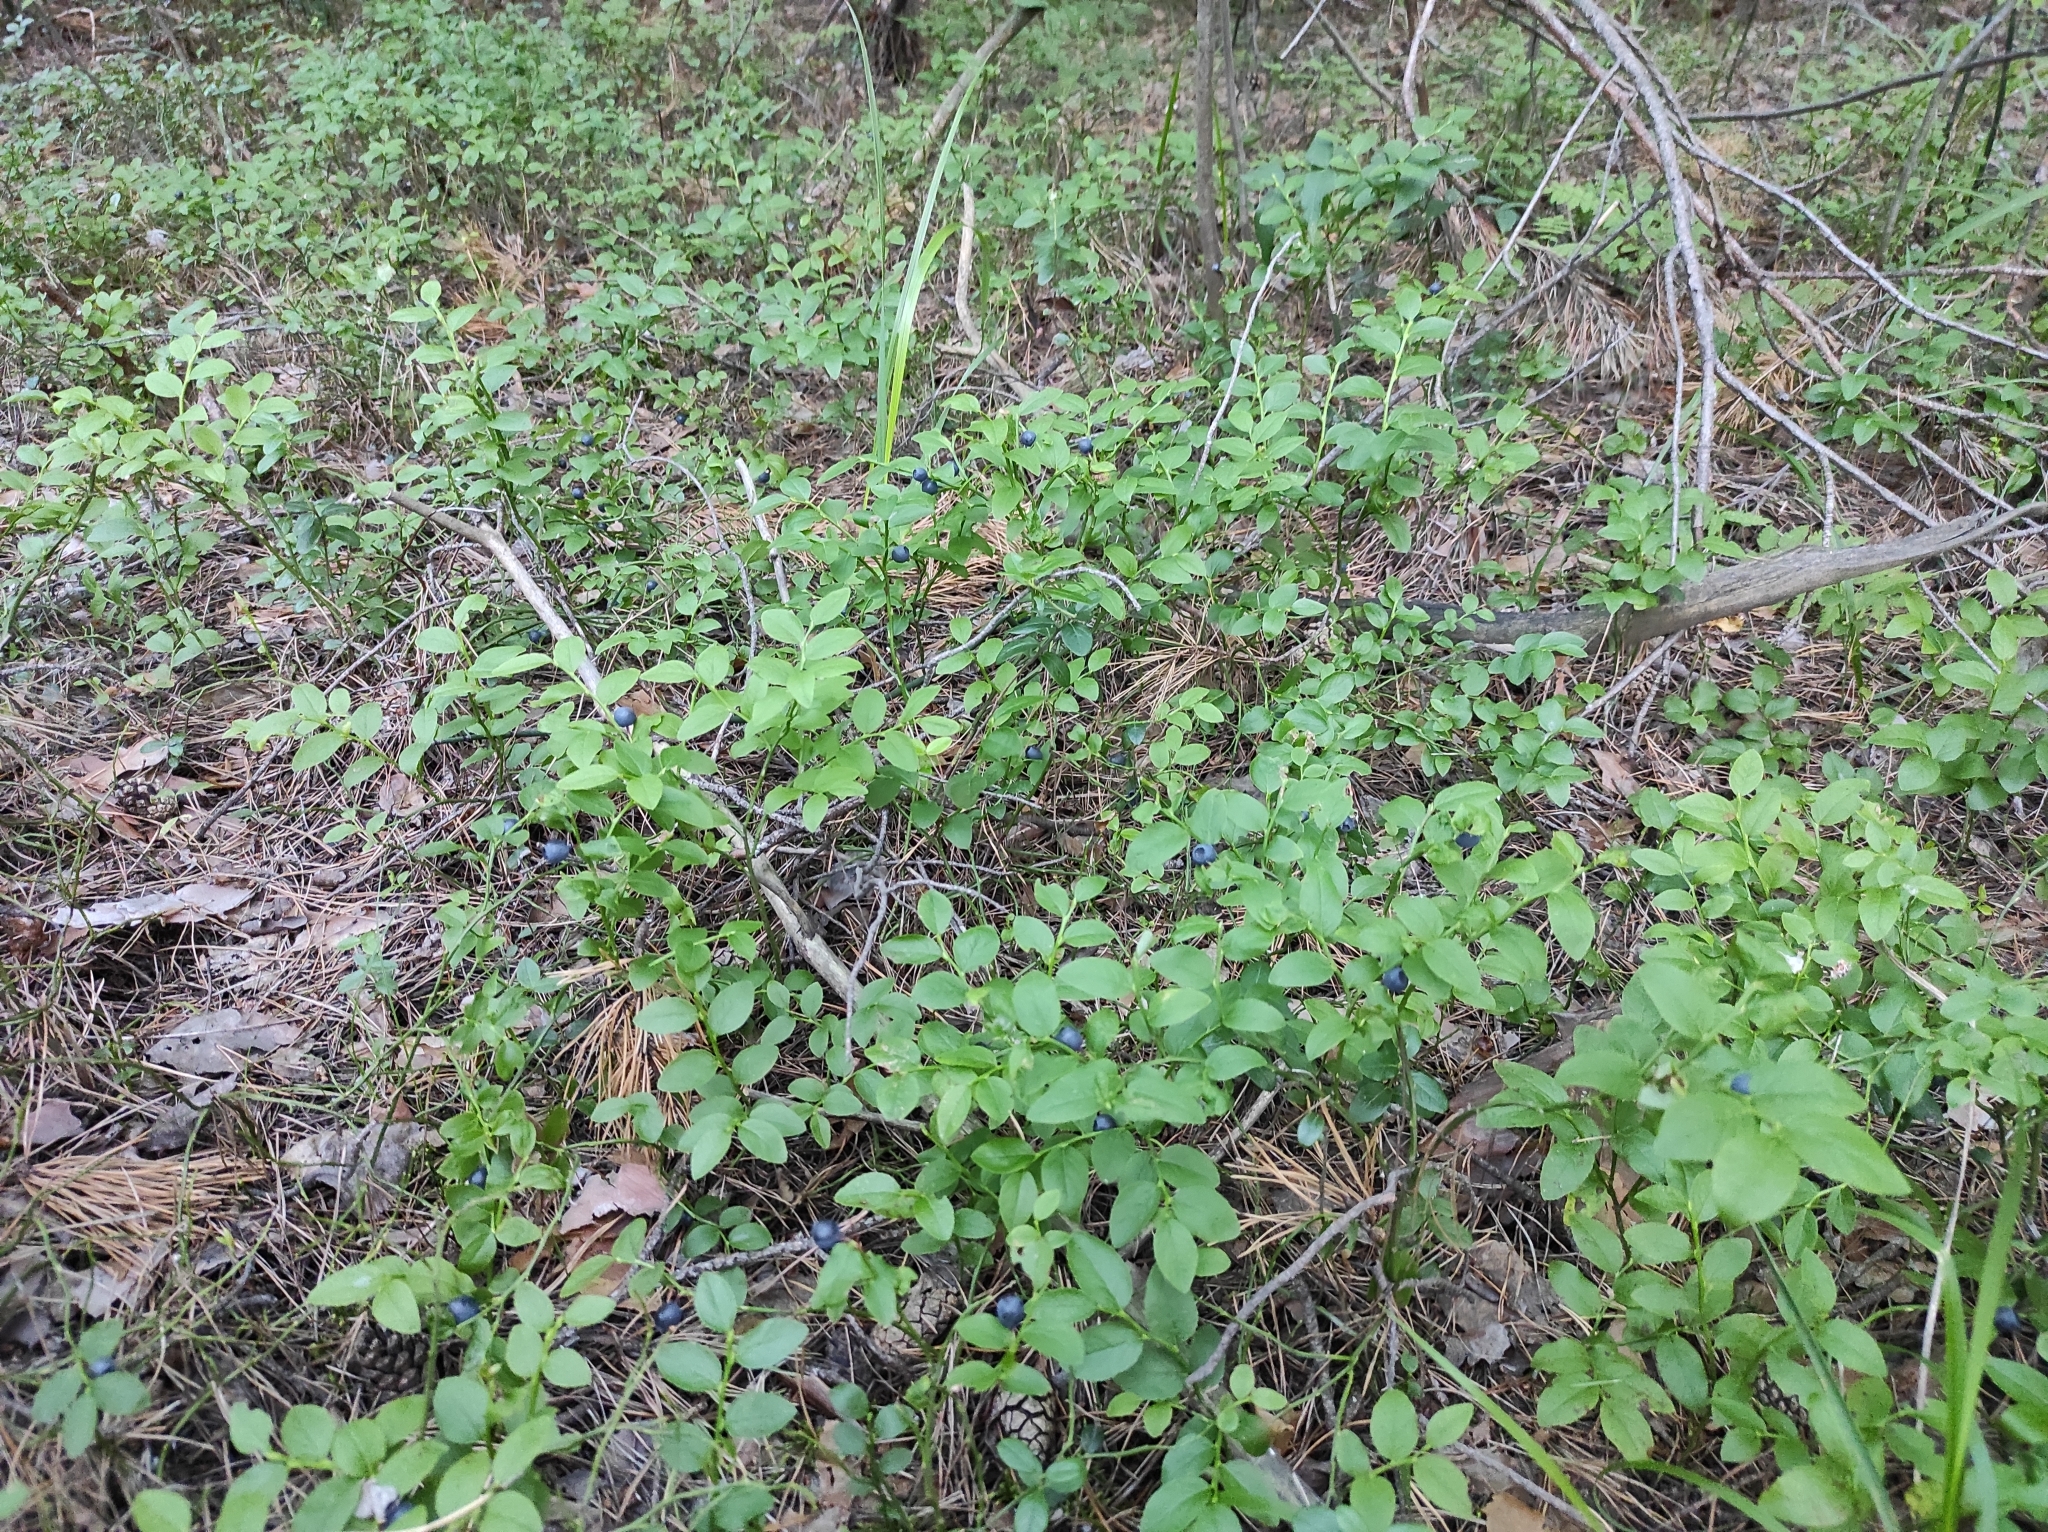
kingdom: Plantae
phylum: Tracheophyta
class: Magnoliopsida
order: Ericales
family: Ericaceae
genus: Vaccinium
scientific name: Vaccinium myrtillus
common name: Bilberry
